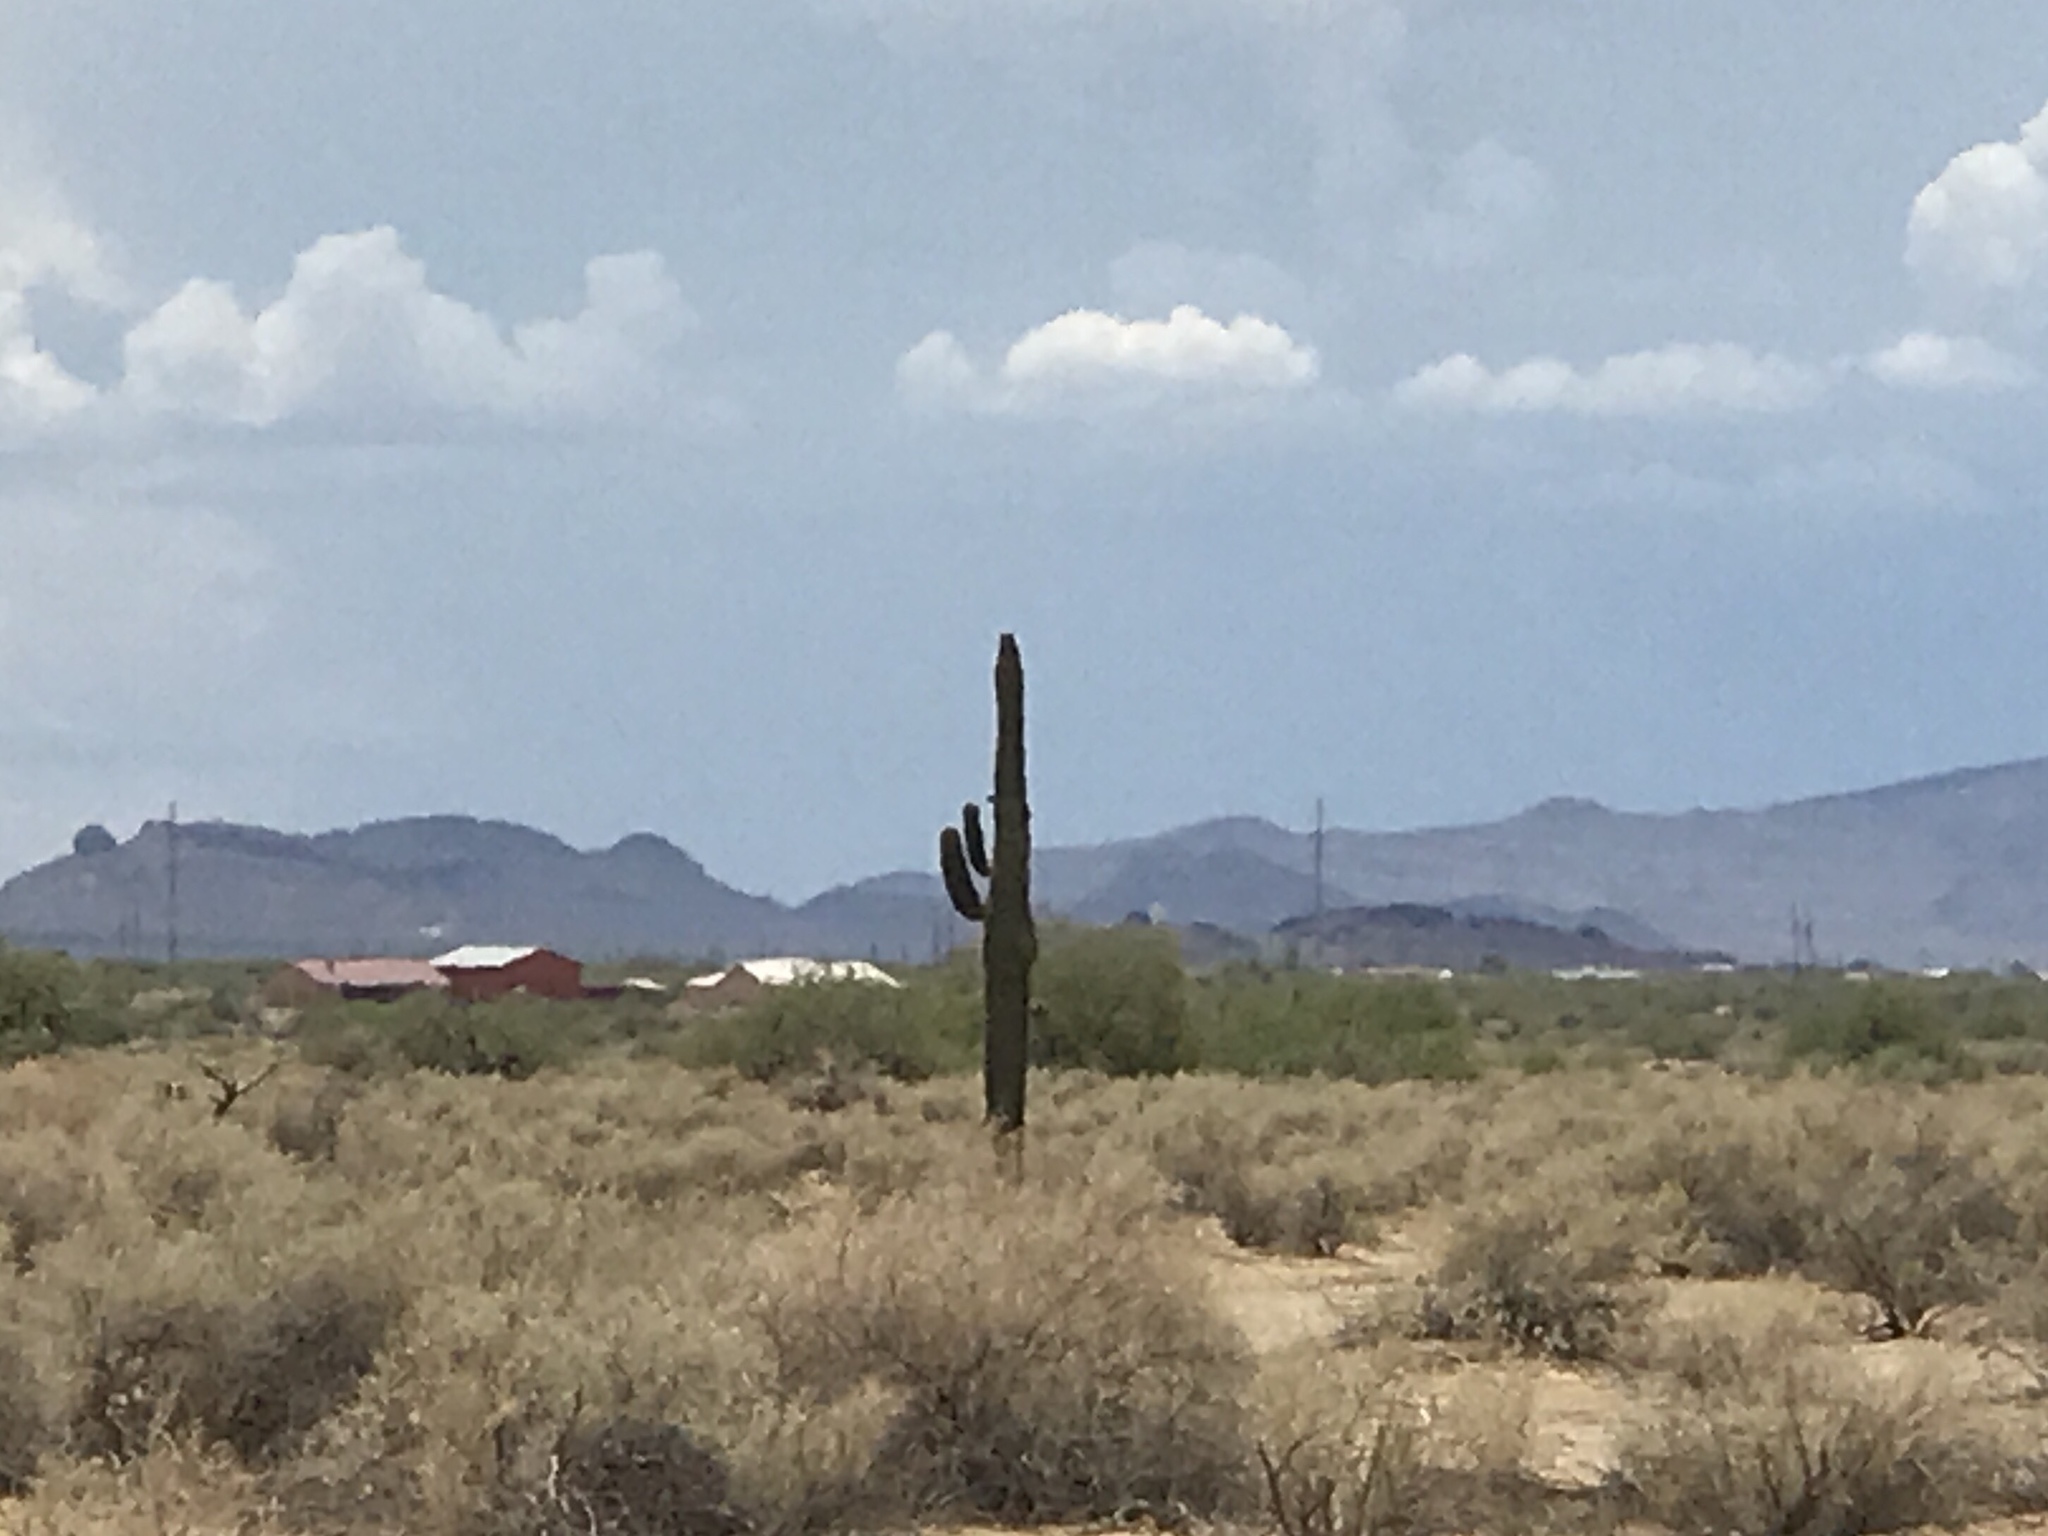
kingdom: Plantae
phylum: Tracheophyta
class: Magnoliopsida
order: Caryophyllales
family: Cactaceae
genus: Carnegiea
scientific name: Carnegiea gigantea
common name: Saguaro
